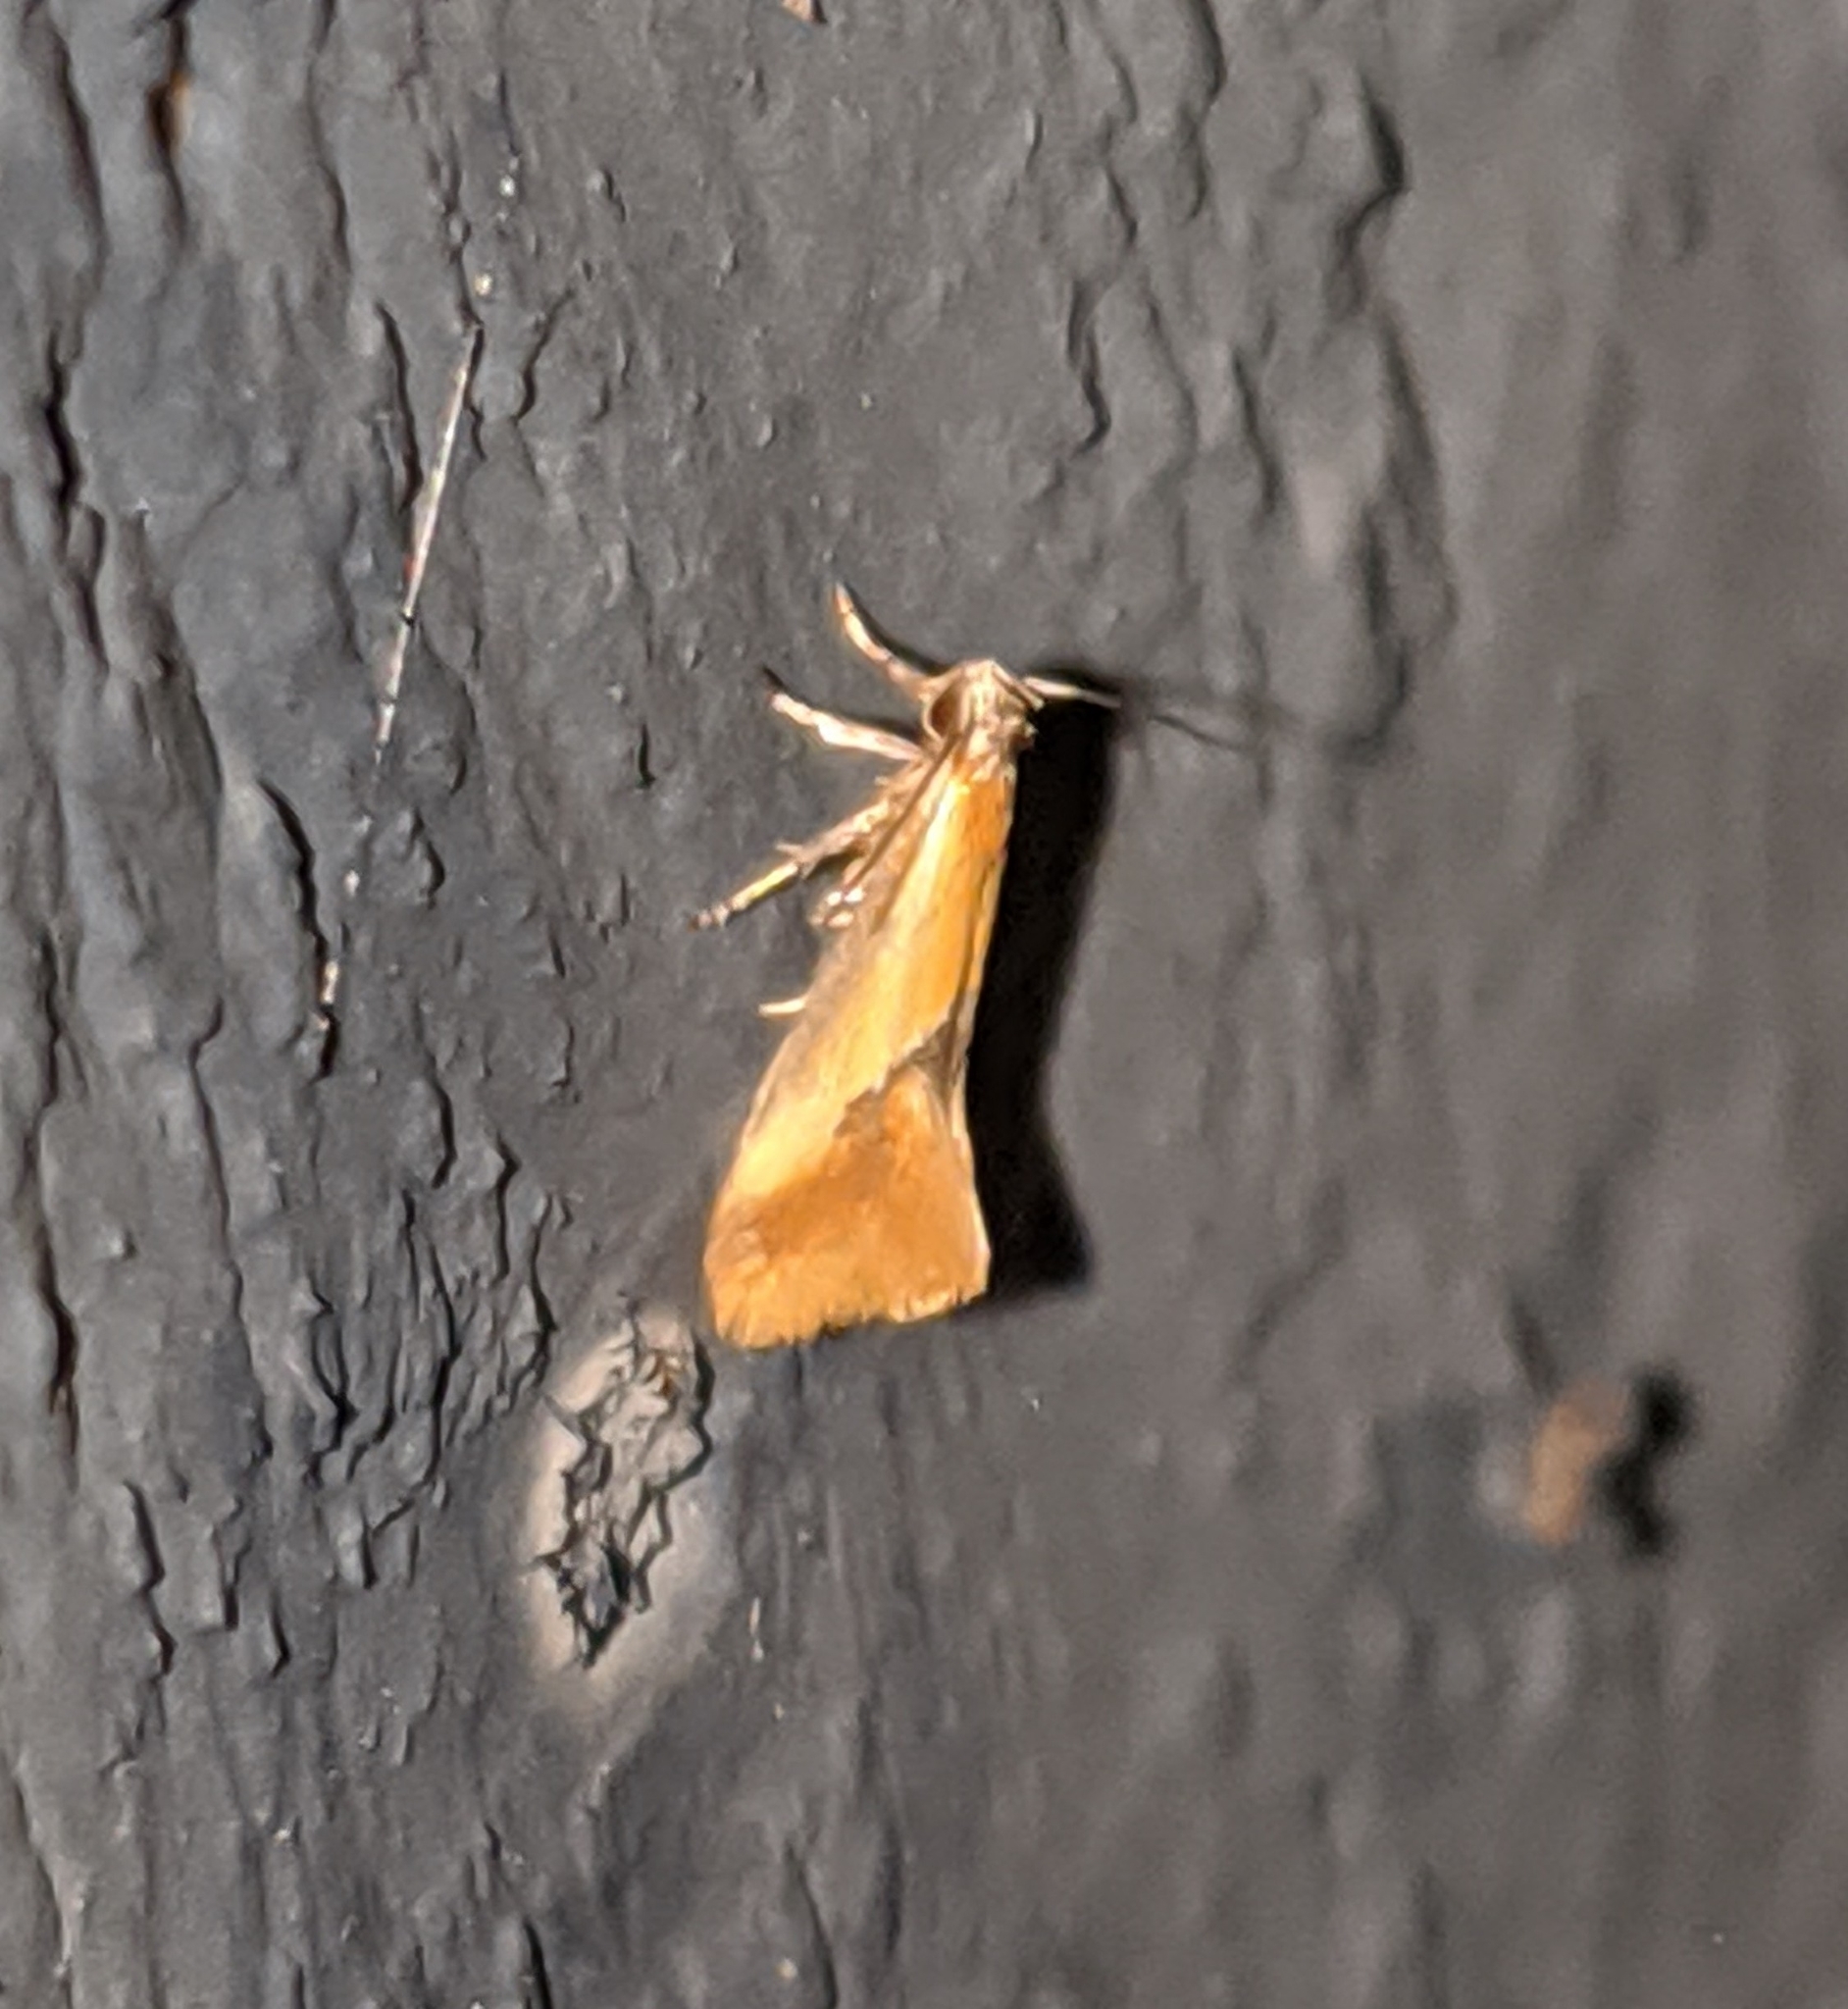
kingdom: Animalia
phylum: Arthropoda
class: Insecta
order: Lepidoptera
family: Oecophoridae
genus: Batia
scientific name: Batia lunaris
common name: Moth
